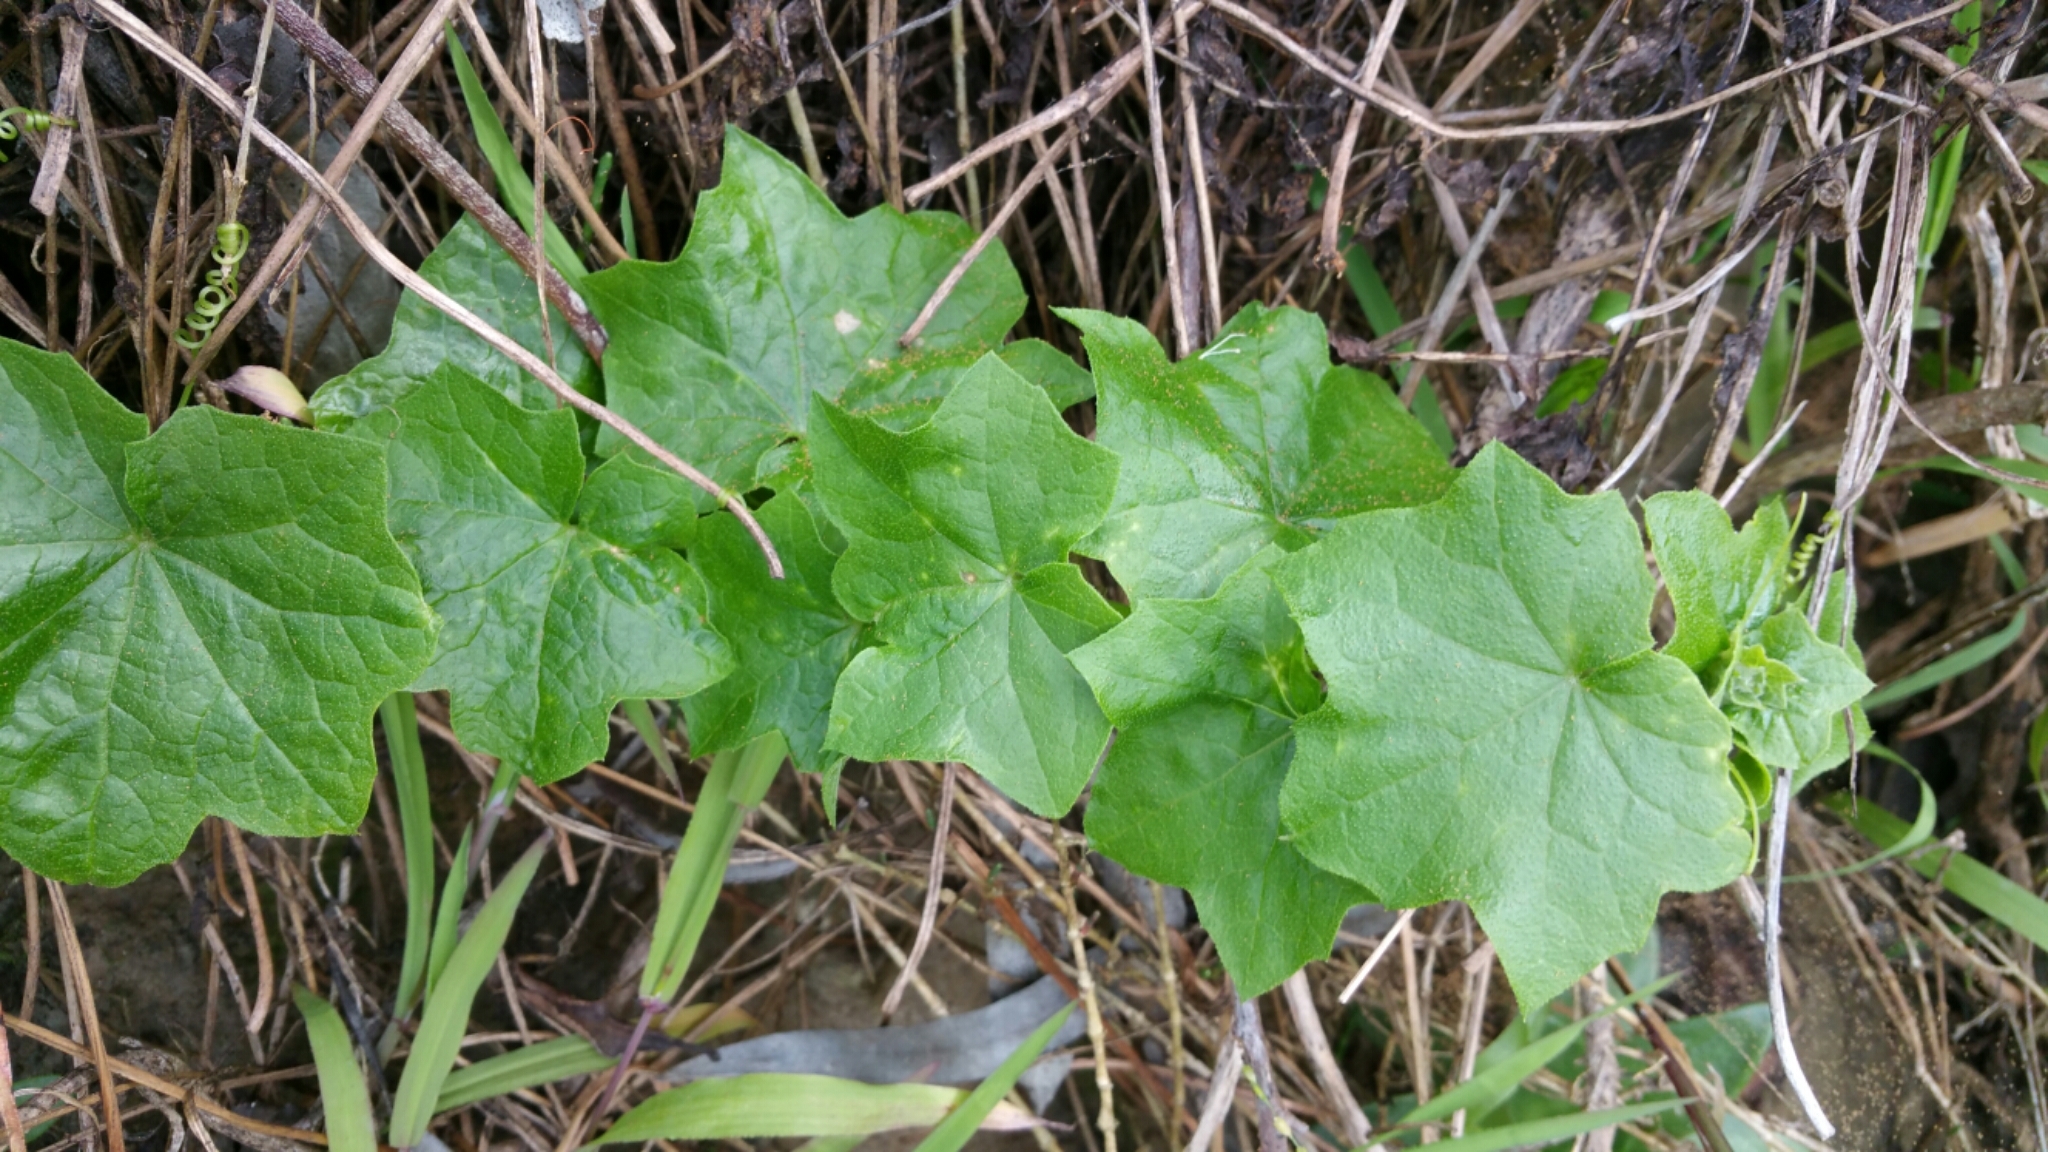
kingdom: Plantae
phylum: Tracheophyta
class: Magnoliopsida
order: Cucurbitales
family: Cucurbitaceae
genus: Marah
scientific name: Marah fabacea
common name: California manroot
